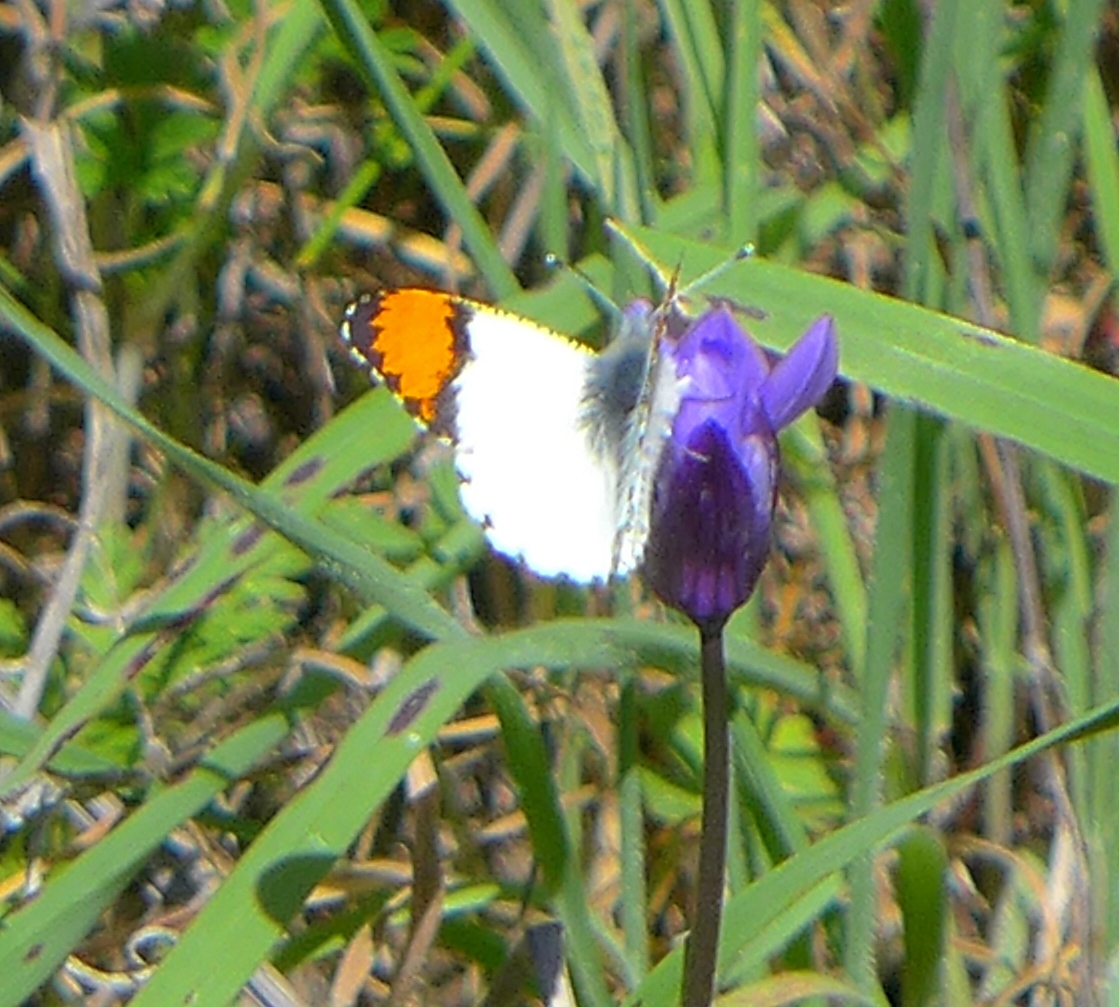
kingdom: Animalia
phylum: Arthropoda
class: Insecta
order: Lepidoptera
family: Pieridae
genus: Anthocharis
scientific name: Anthocharis sara
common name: Sara's orangetip
